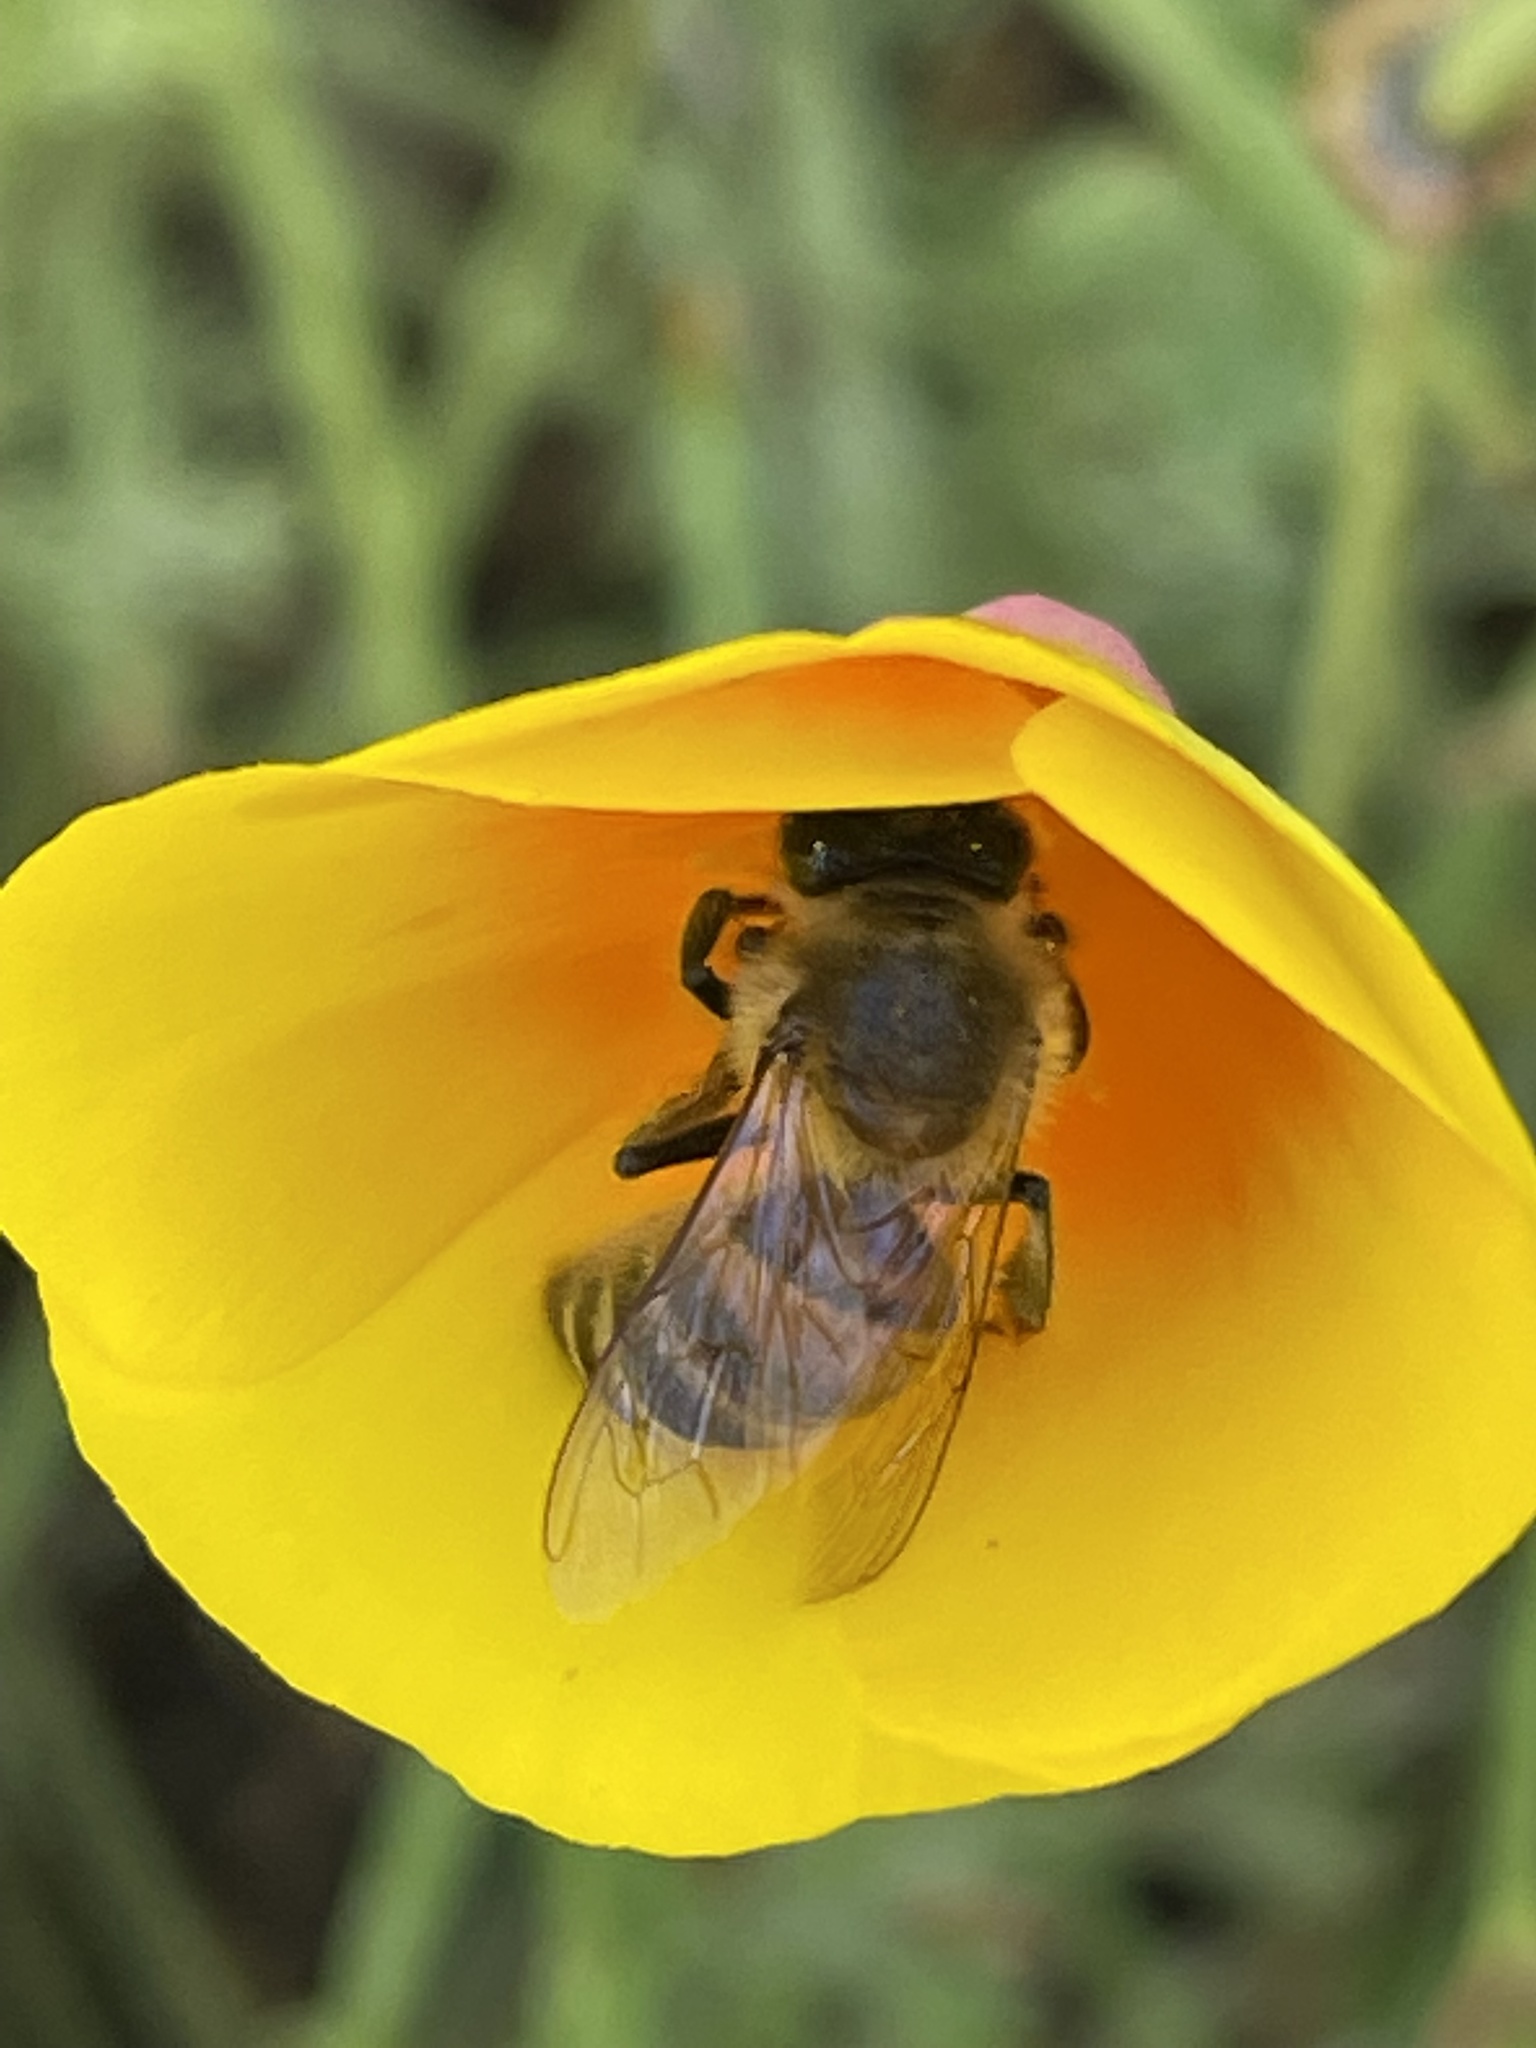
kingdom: Animalia
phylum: Arthropoda
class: Insecta
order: Hymenoptera
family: Apidae
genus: Apis
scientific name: Apis mellifera
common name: Honey bee
